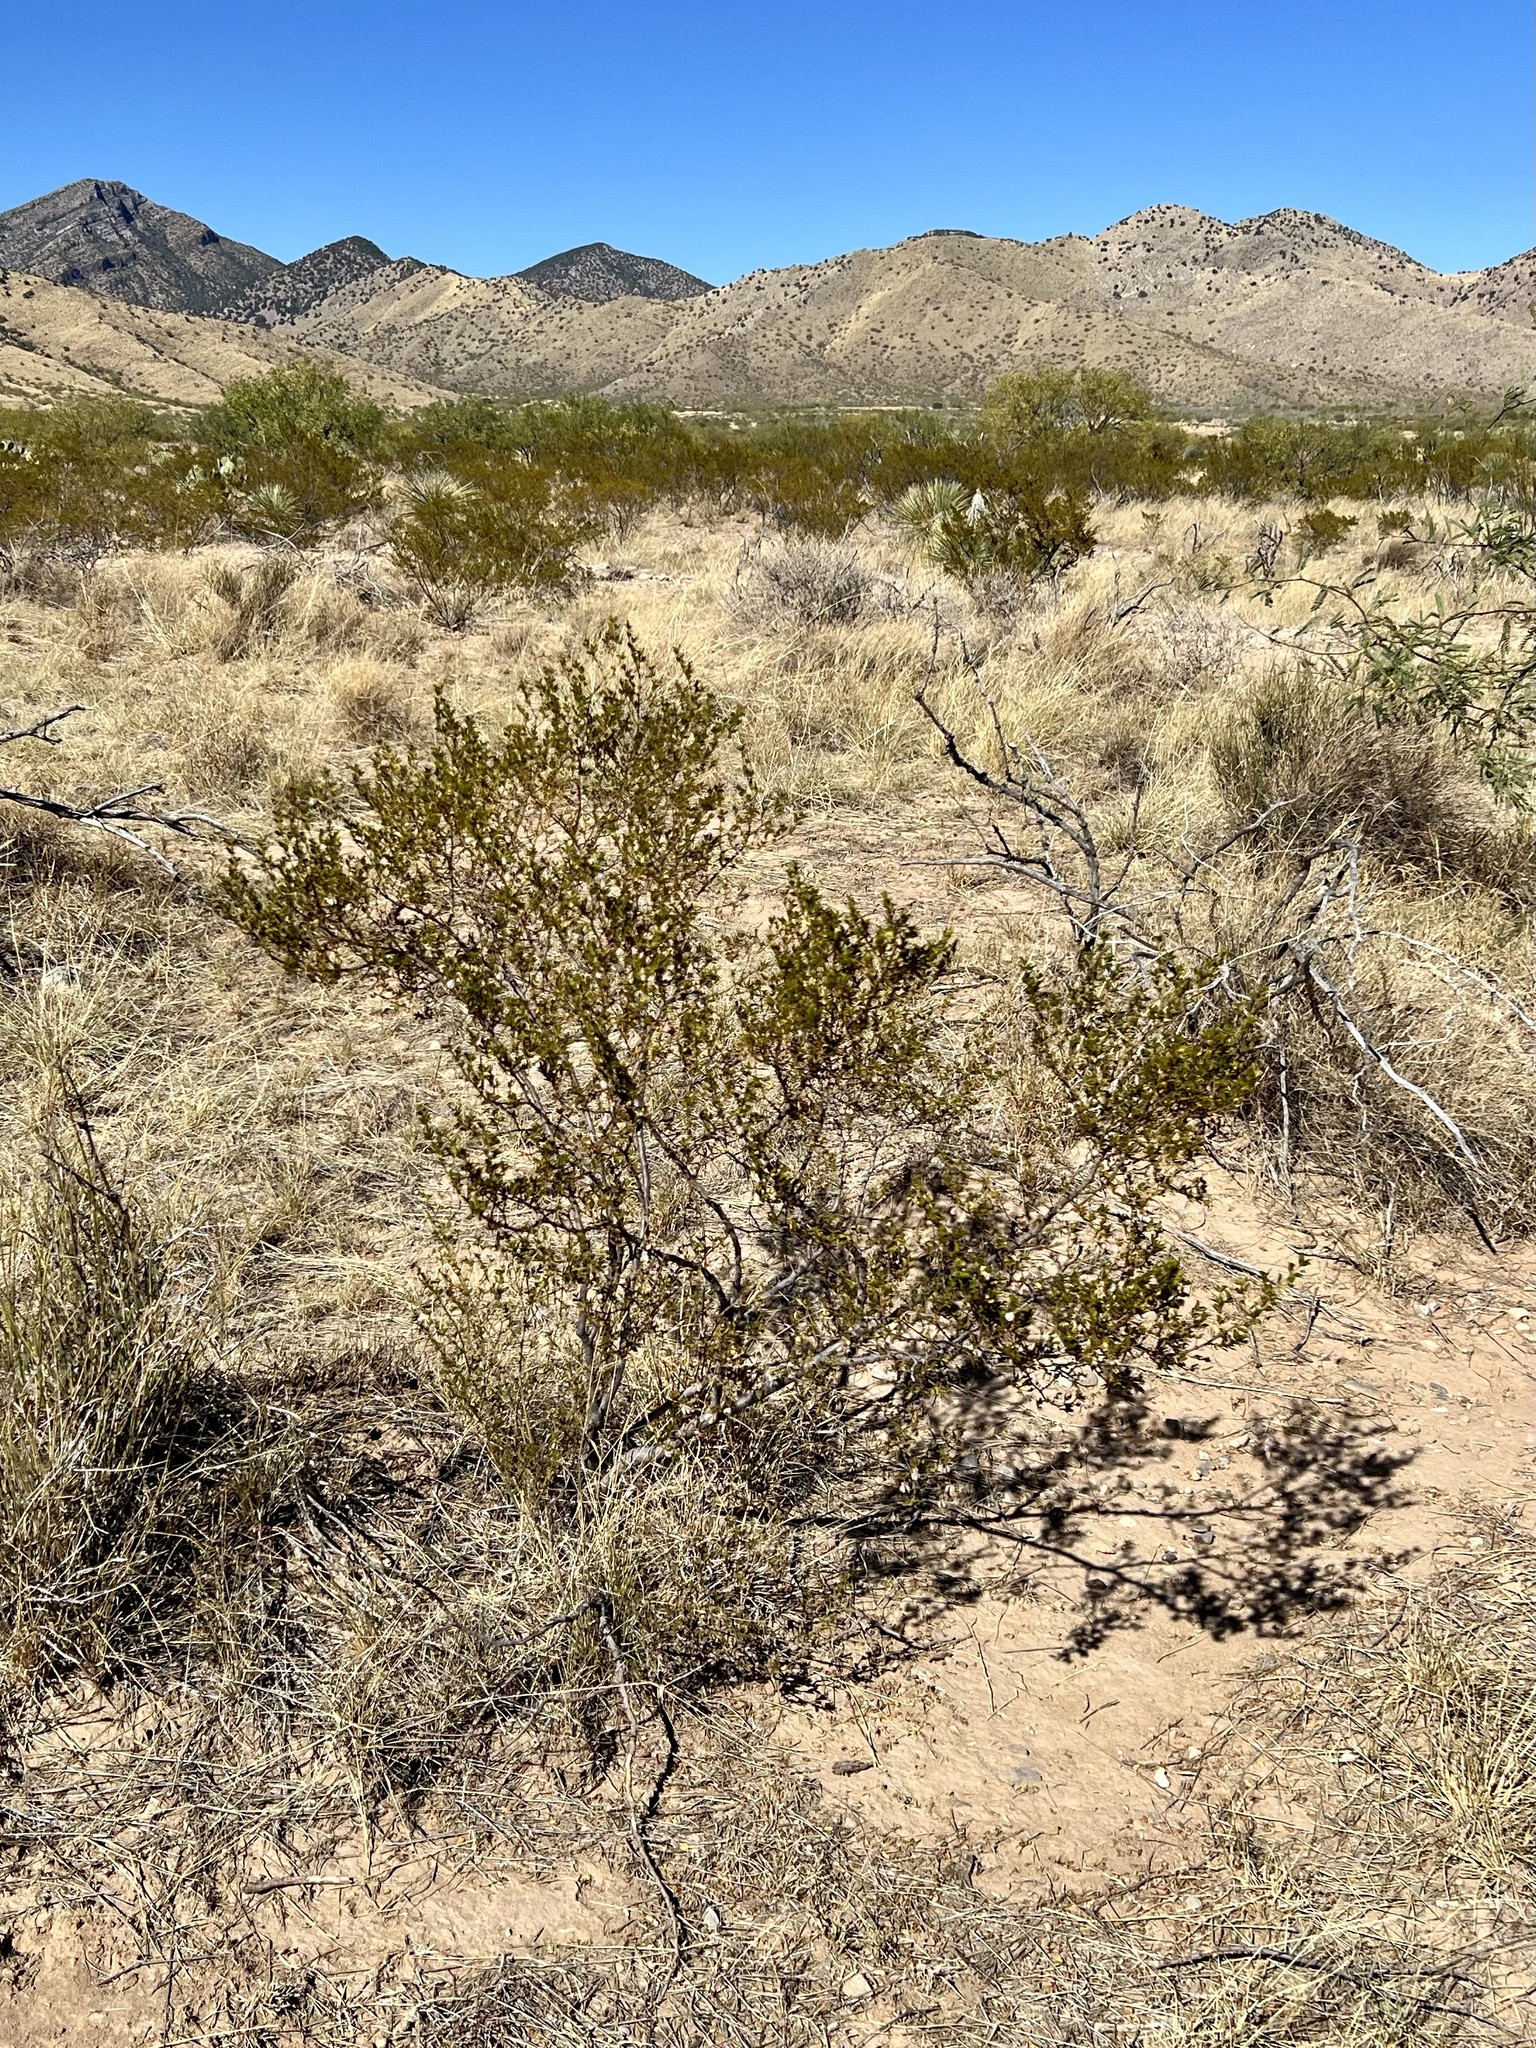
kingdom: Plantae
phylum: Tracheophyta
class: Magnoliopsida
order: Zygophyllales
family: Zygophyllaceae
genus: Larrea
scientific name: Larrea tridentata
